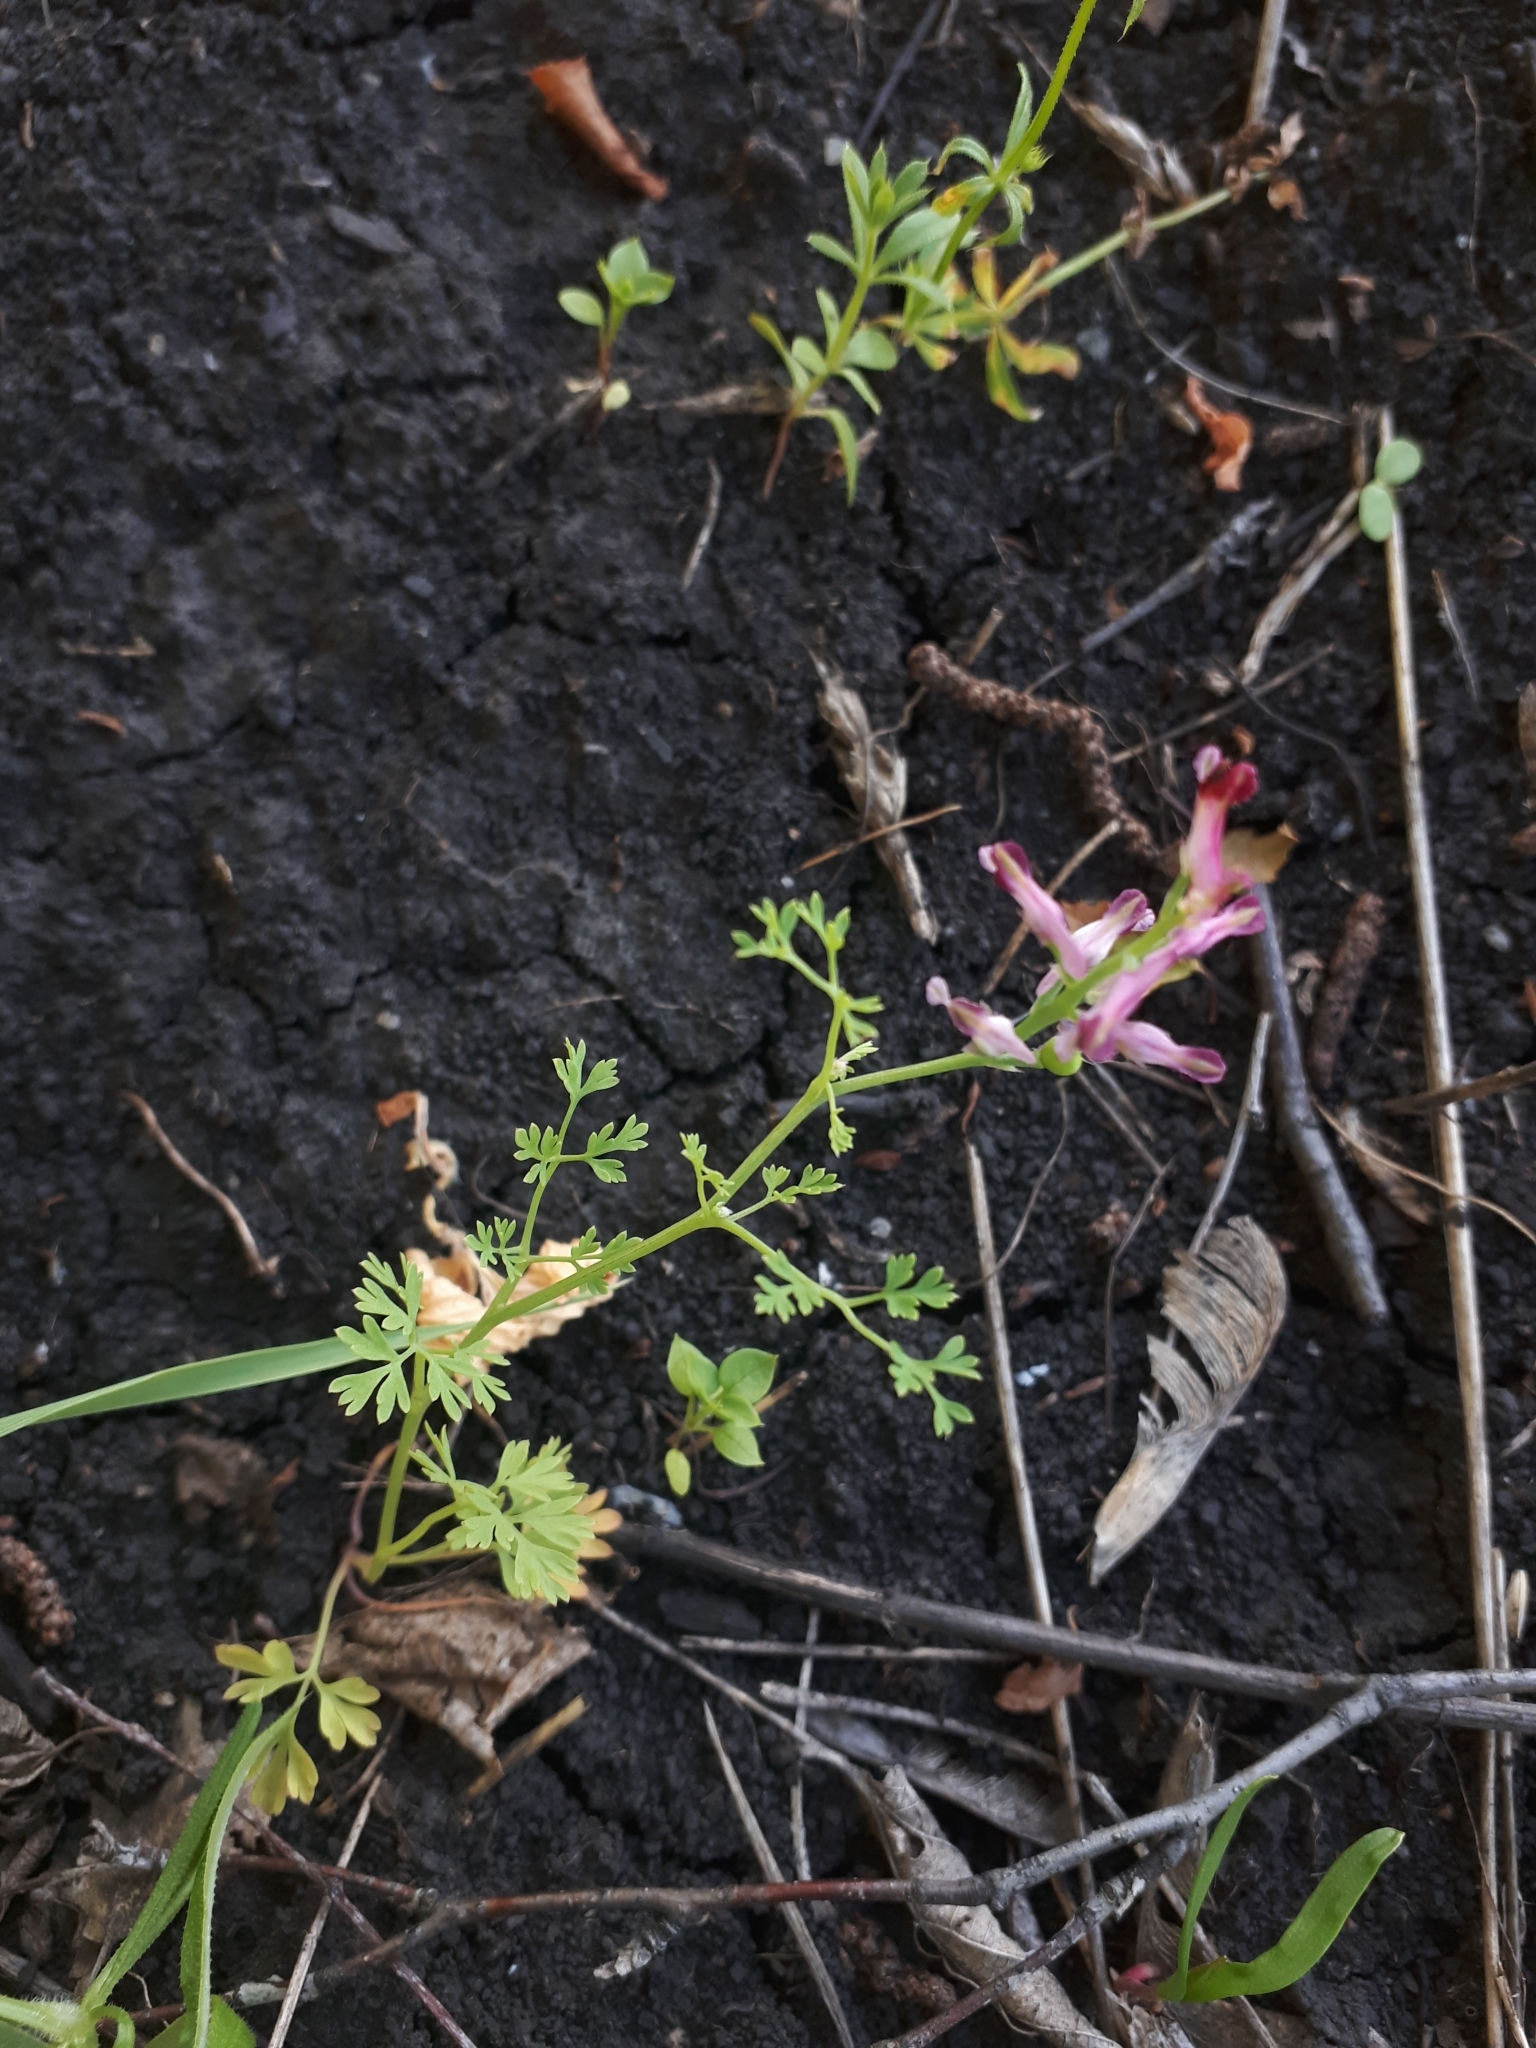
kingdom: Plantae
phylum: Tracheophyta
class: Magnoliopsida
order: Ranunculales
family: Papaveraceae
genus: Fumaria
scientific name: Fumaria officinalis
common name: Common fumitory
